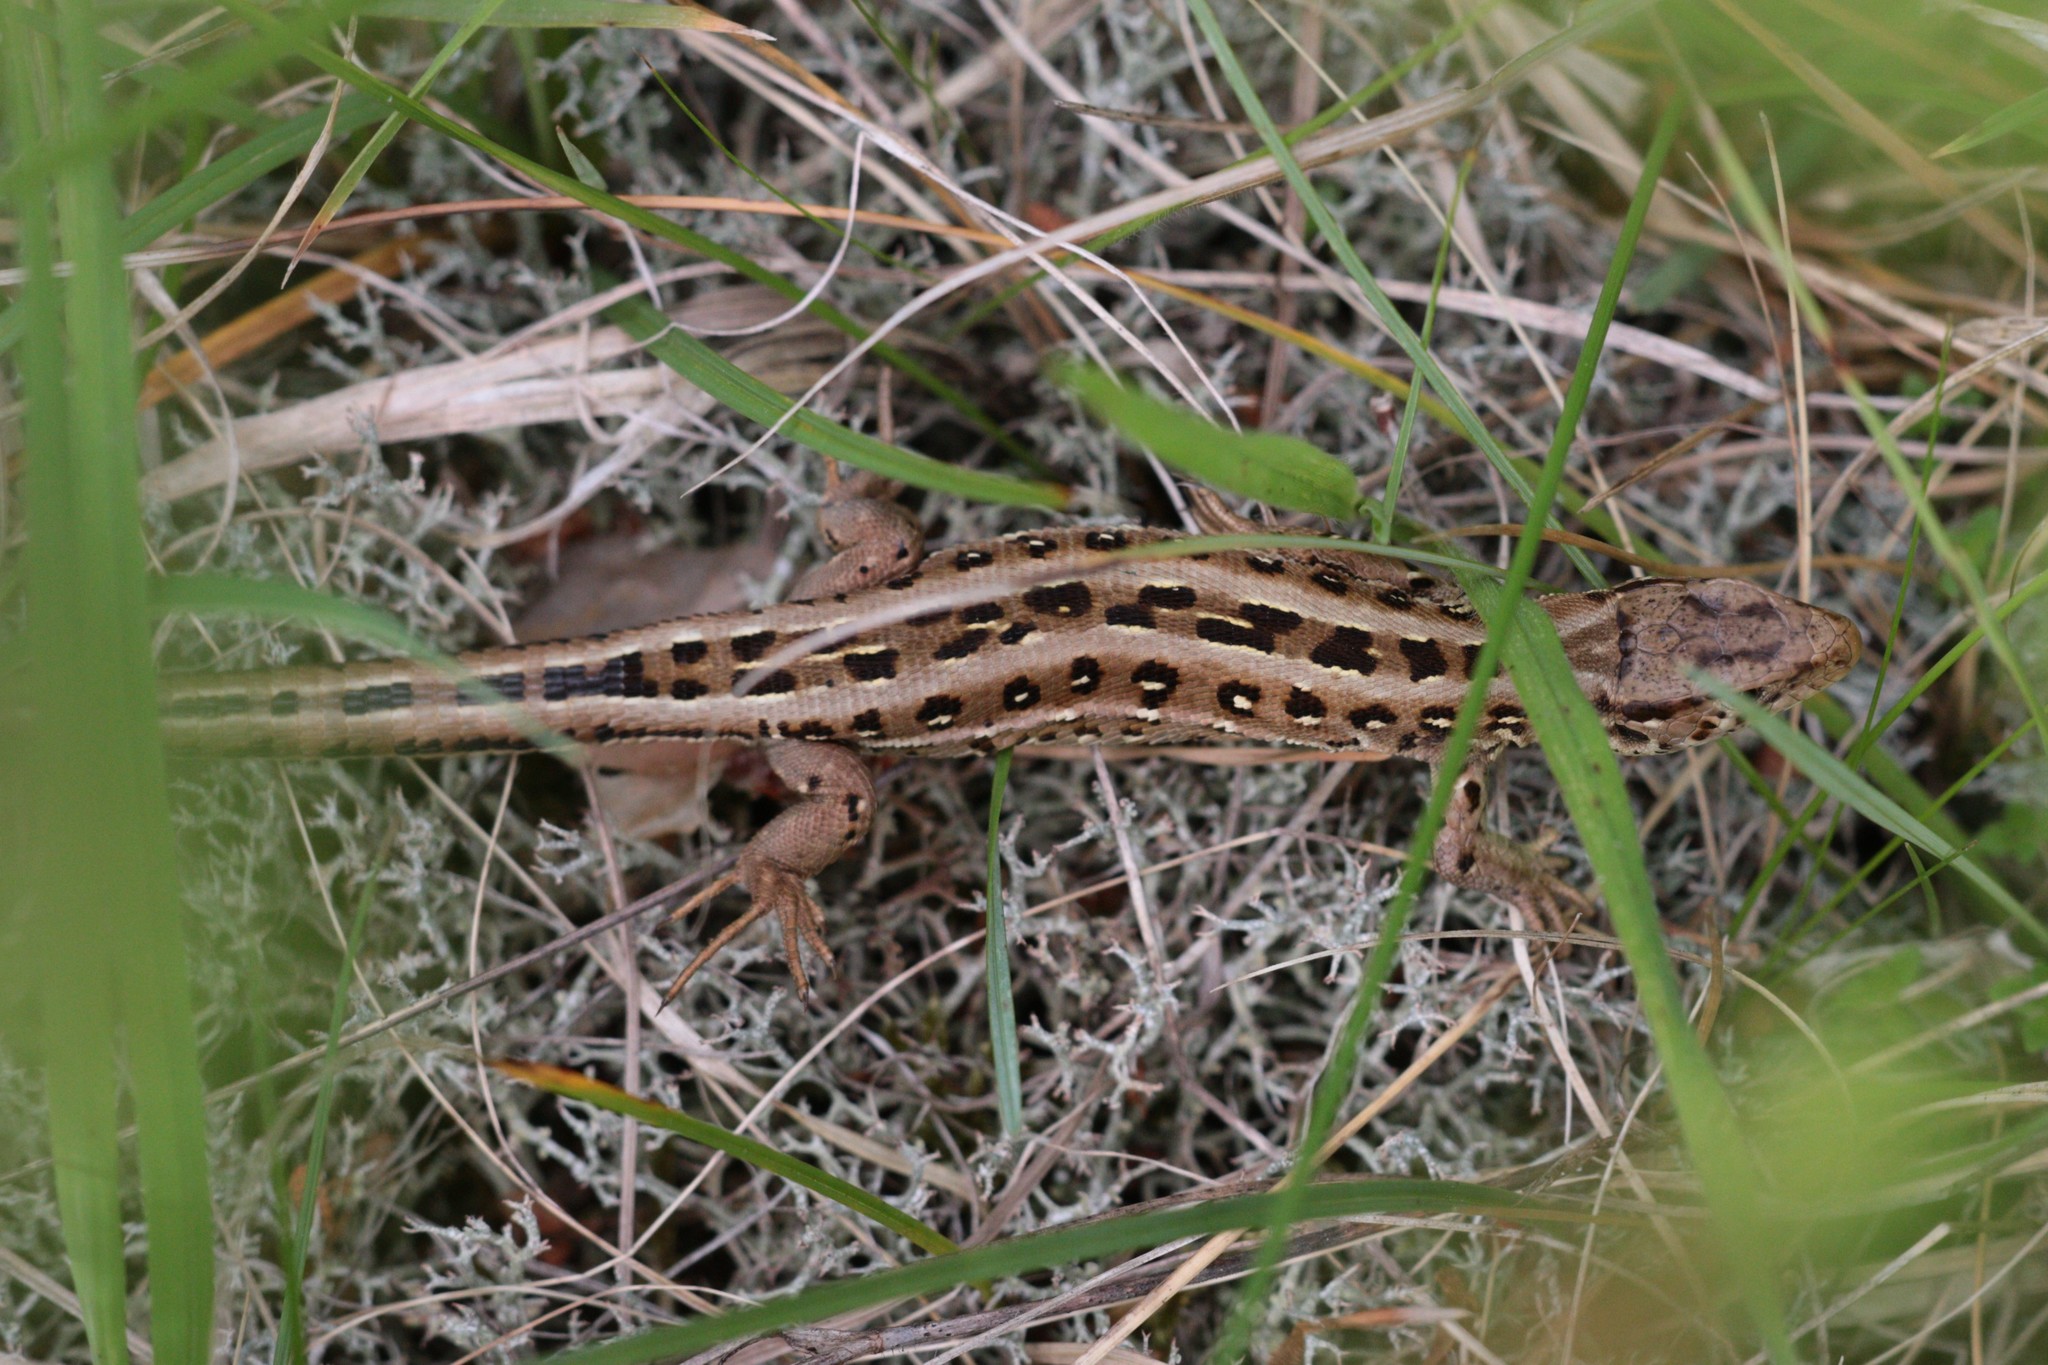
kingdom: Animalia
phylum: Chordata
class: Squamata
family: Lacertidae
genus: Lacerta
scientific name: Lacerta agilis
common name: Sand lizard
